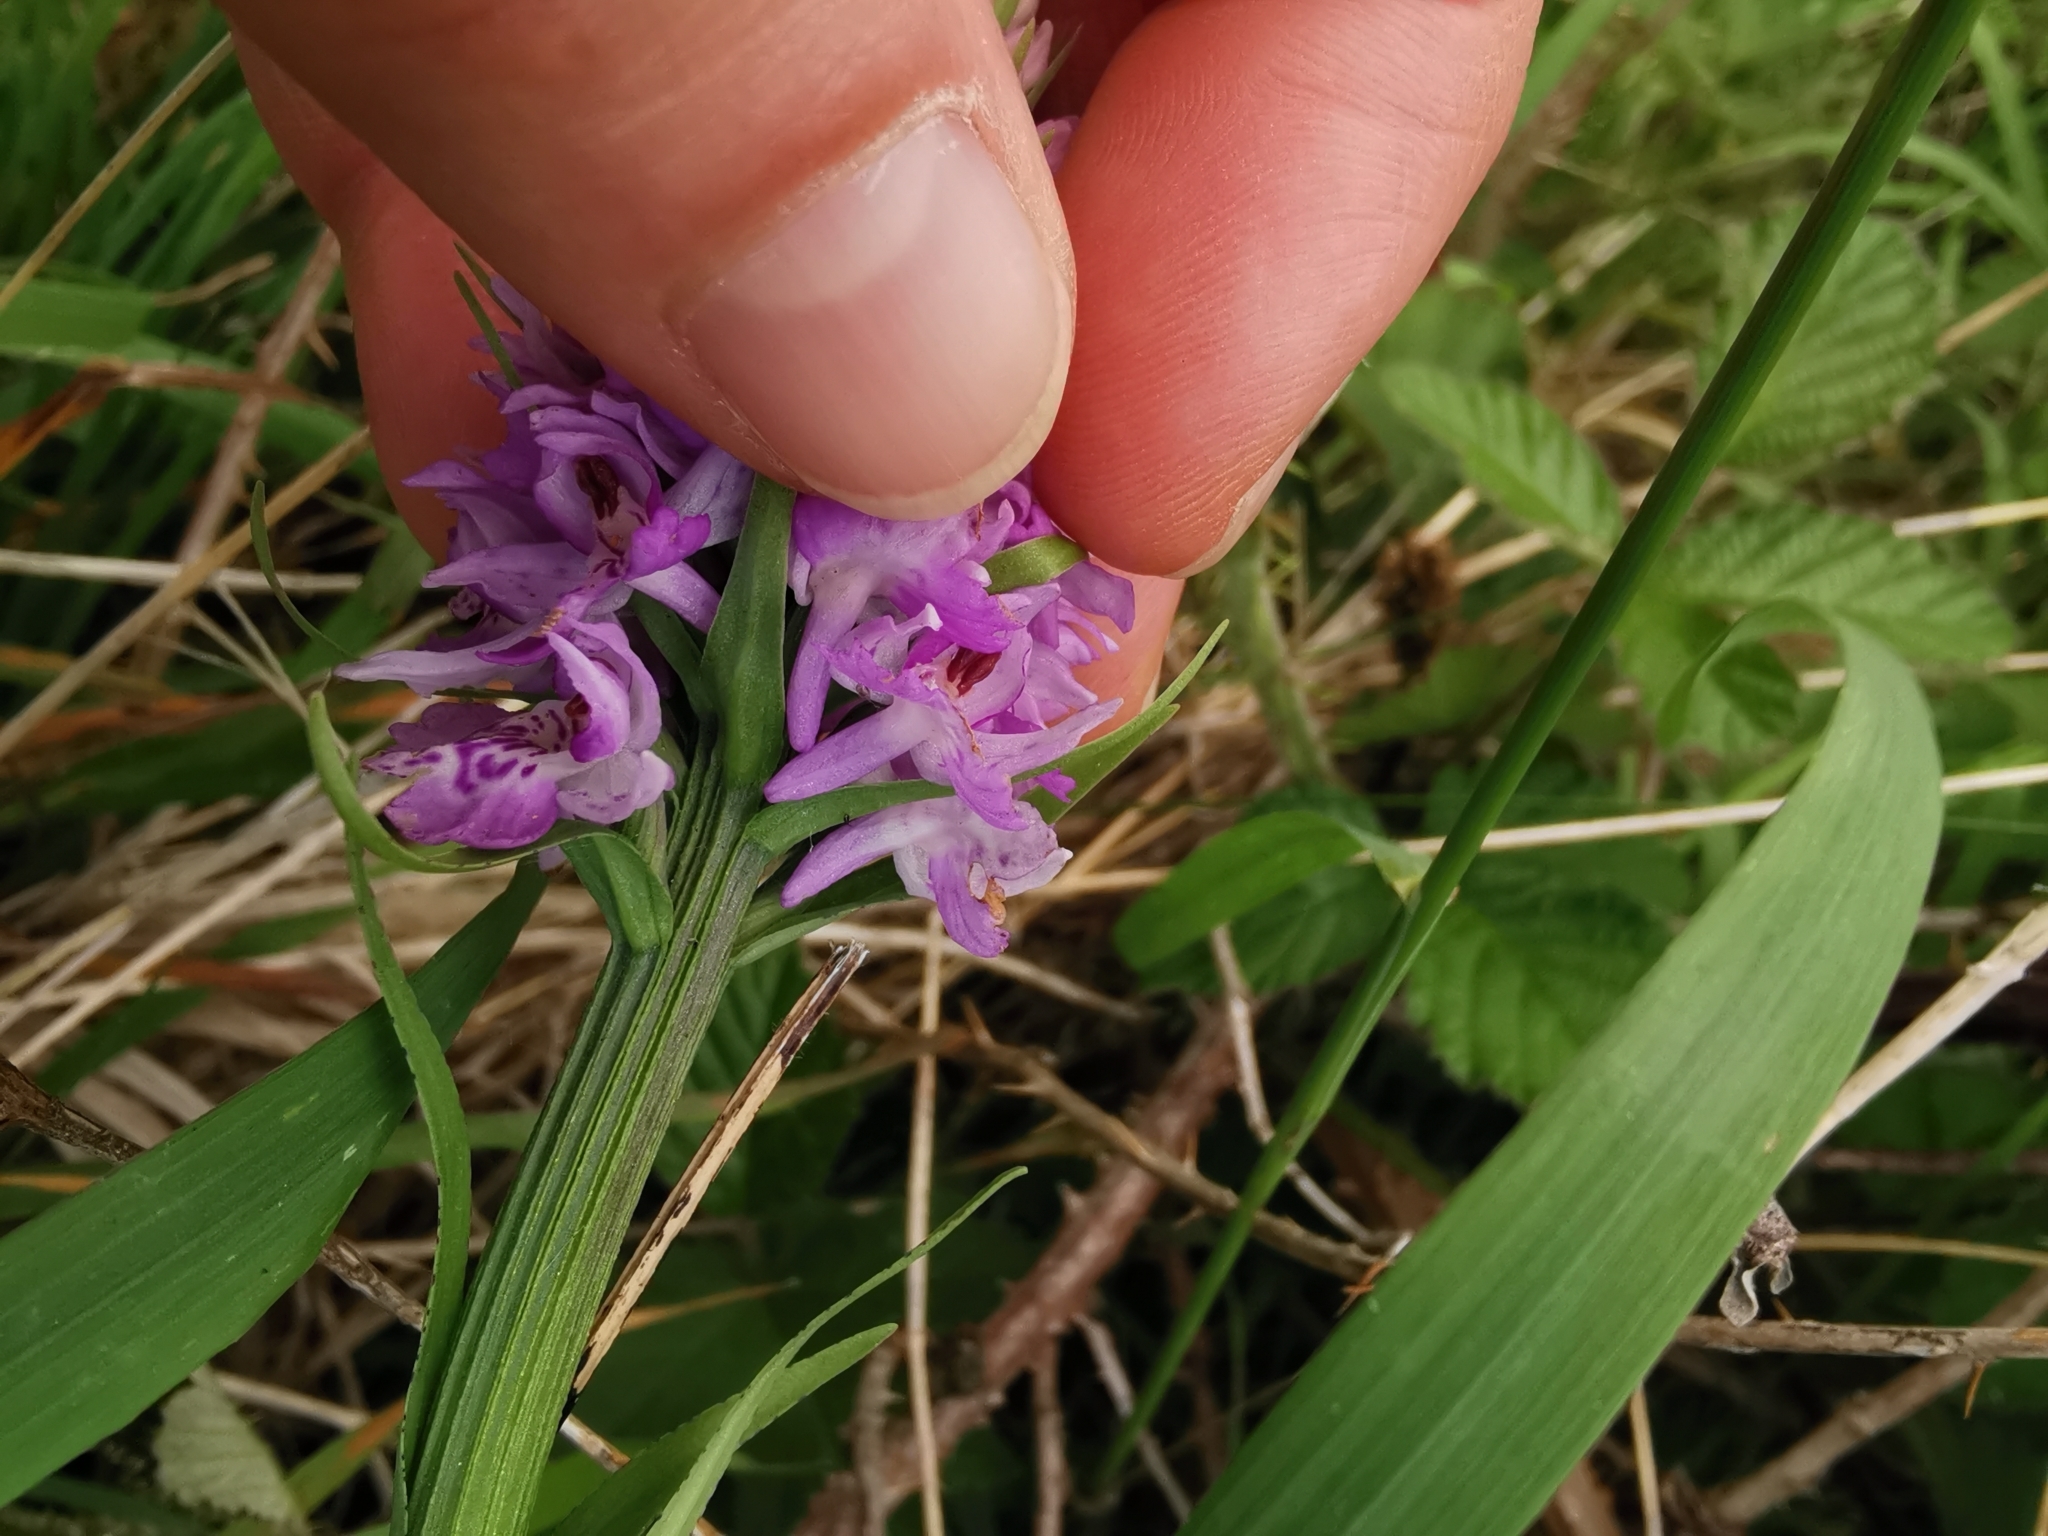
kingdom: Plantae
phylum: Tracheophyta
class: Liliopsida
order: Asparagales
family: Orchidaceae
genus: Dactylorhiza
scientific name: Dactylorhiza maculata
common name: Heath spotted-orchid
